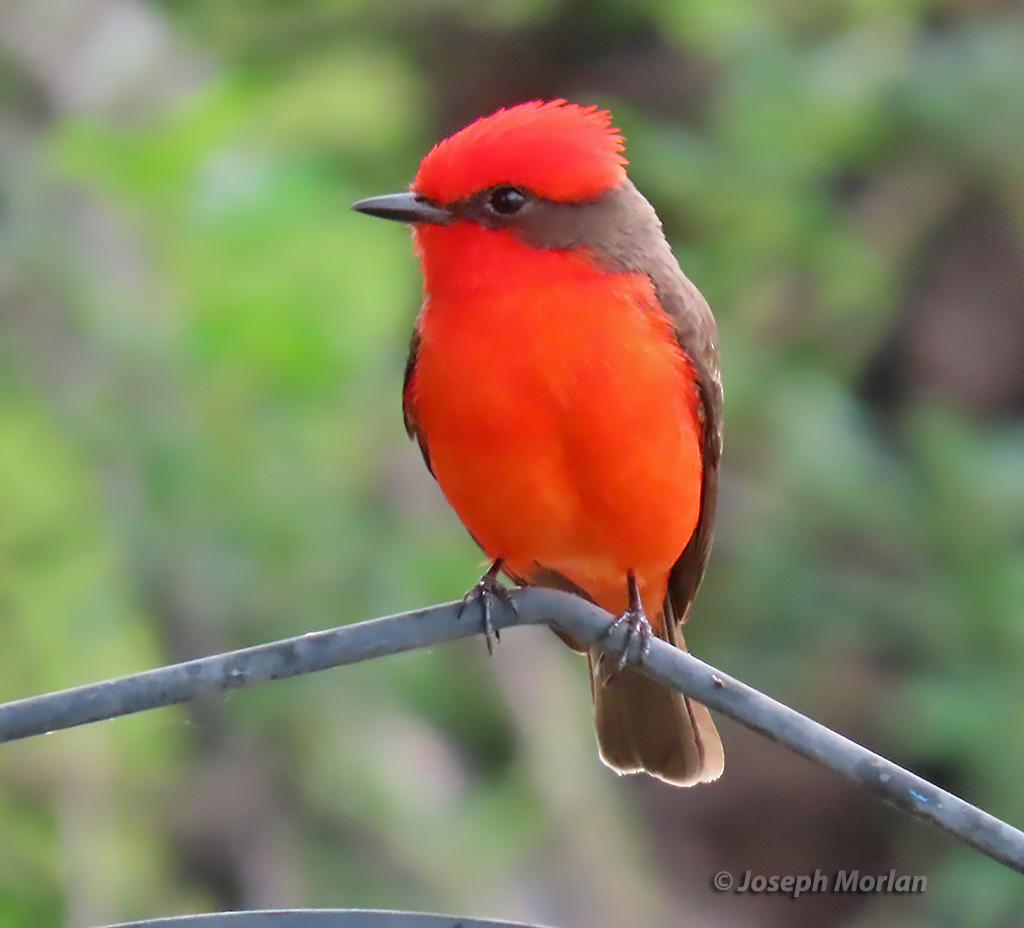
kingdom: Animalia
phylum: Chordata
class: Aves
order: Passeriformes
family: Tyrannidae
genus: Pyrocephalus
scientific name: Pyrocephalus rubinus
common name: Vermilion flycatcher
